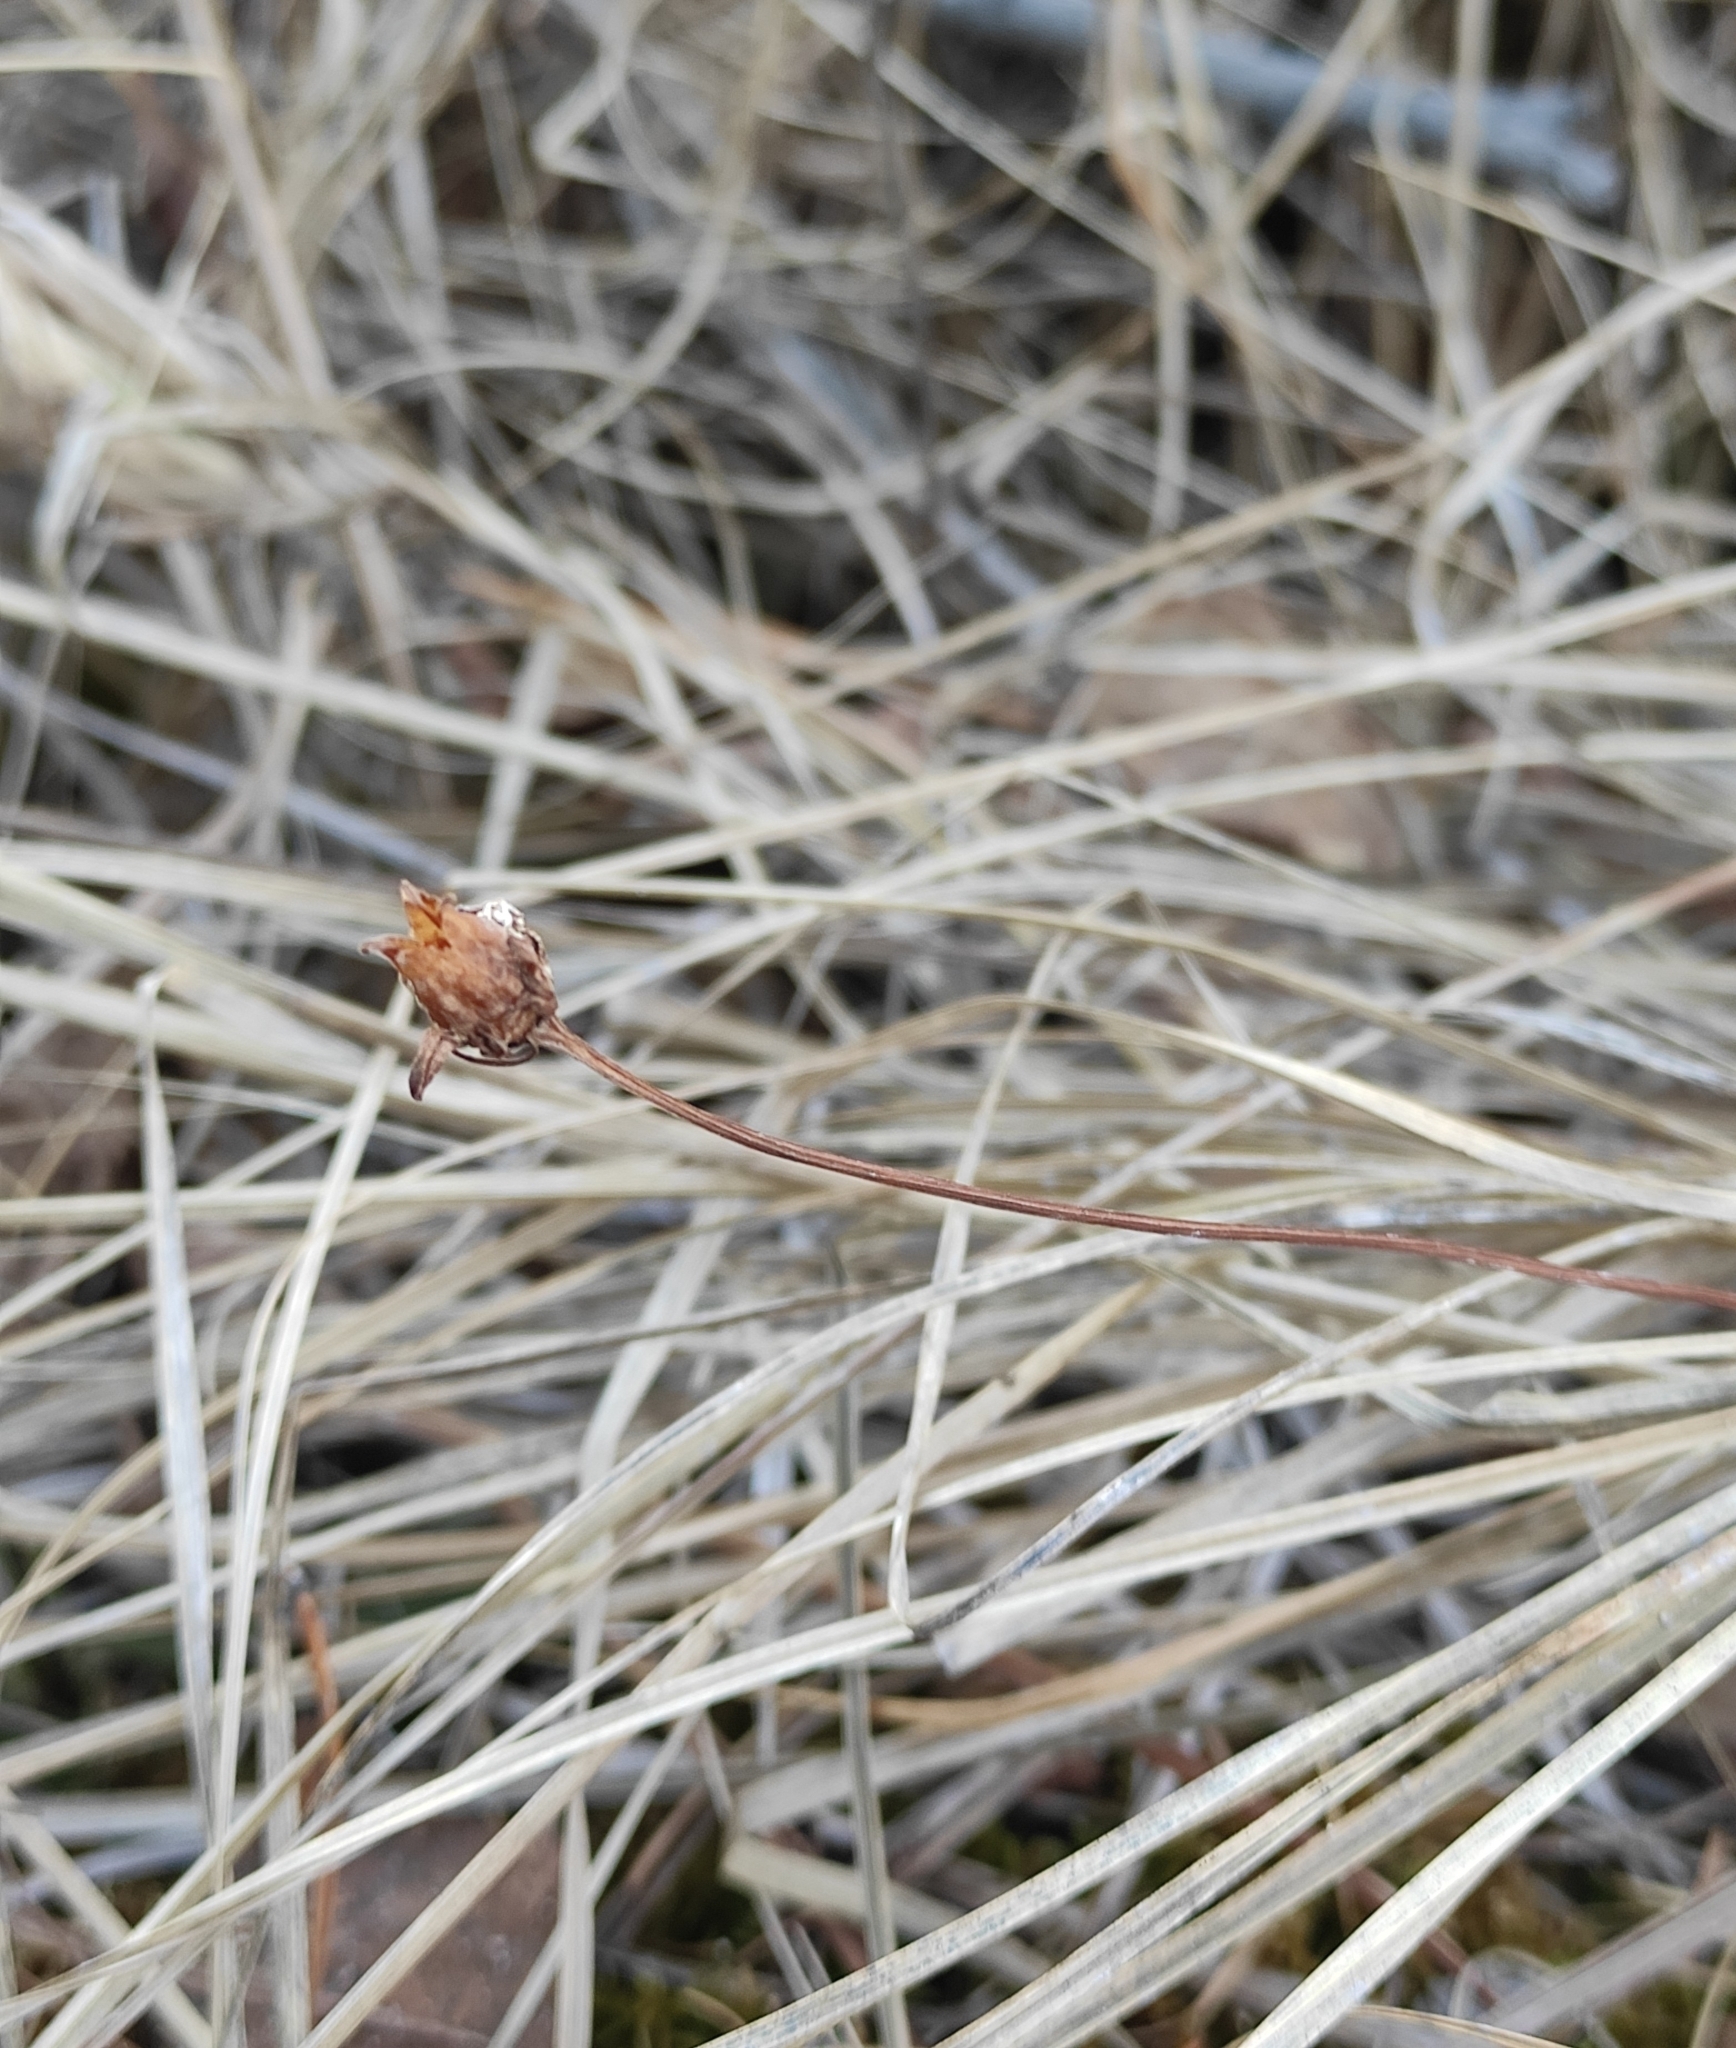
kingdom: Plantae
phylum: Tracheophyta
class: Magnoliopsida
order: Celastrales
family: Parnassiaceae
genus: Parnassia
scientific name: Parnassia palustris
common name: Grass-of-parnassus
